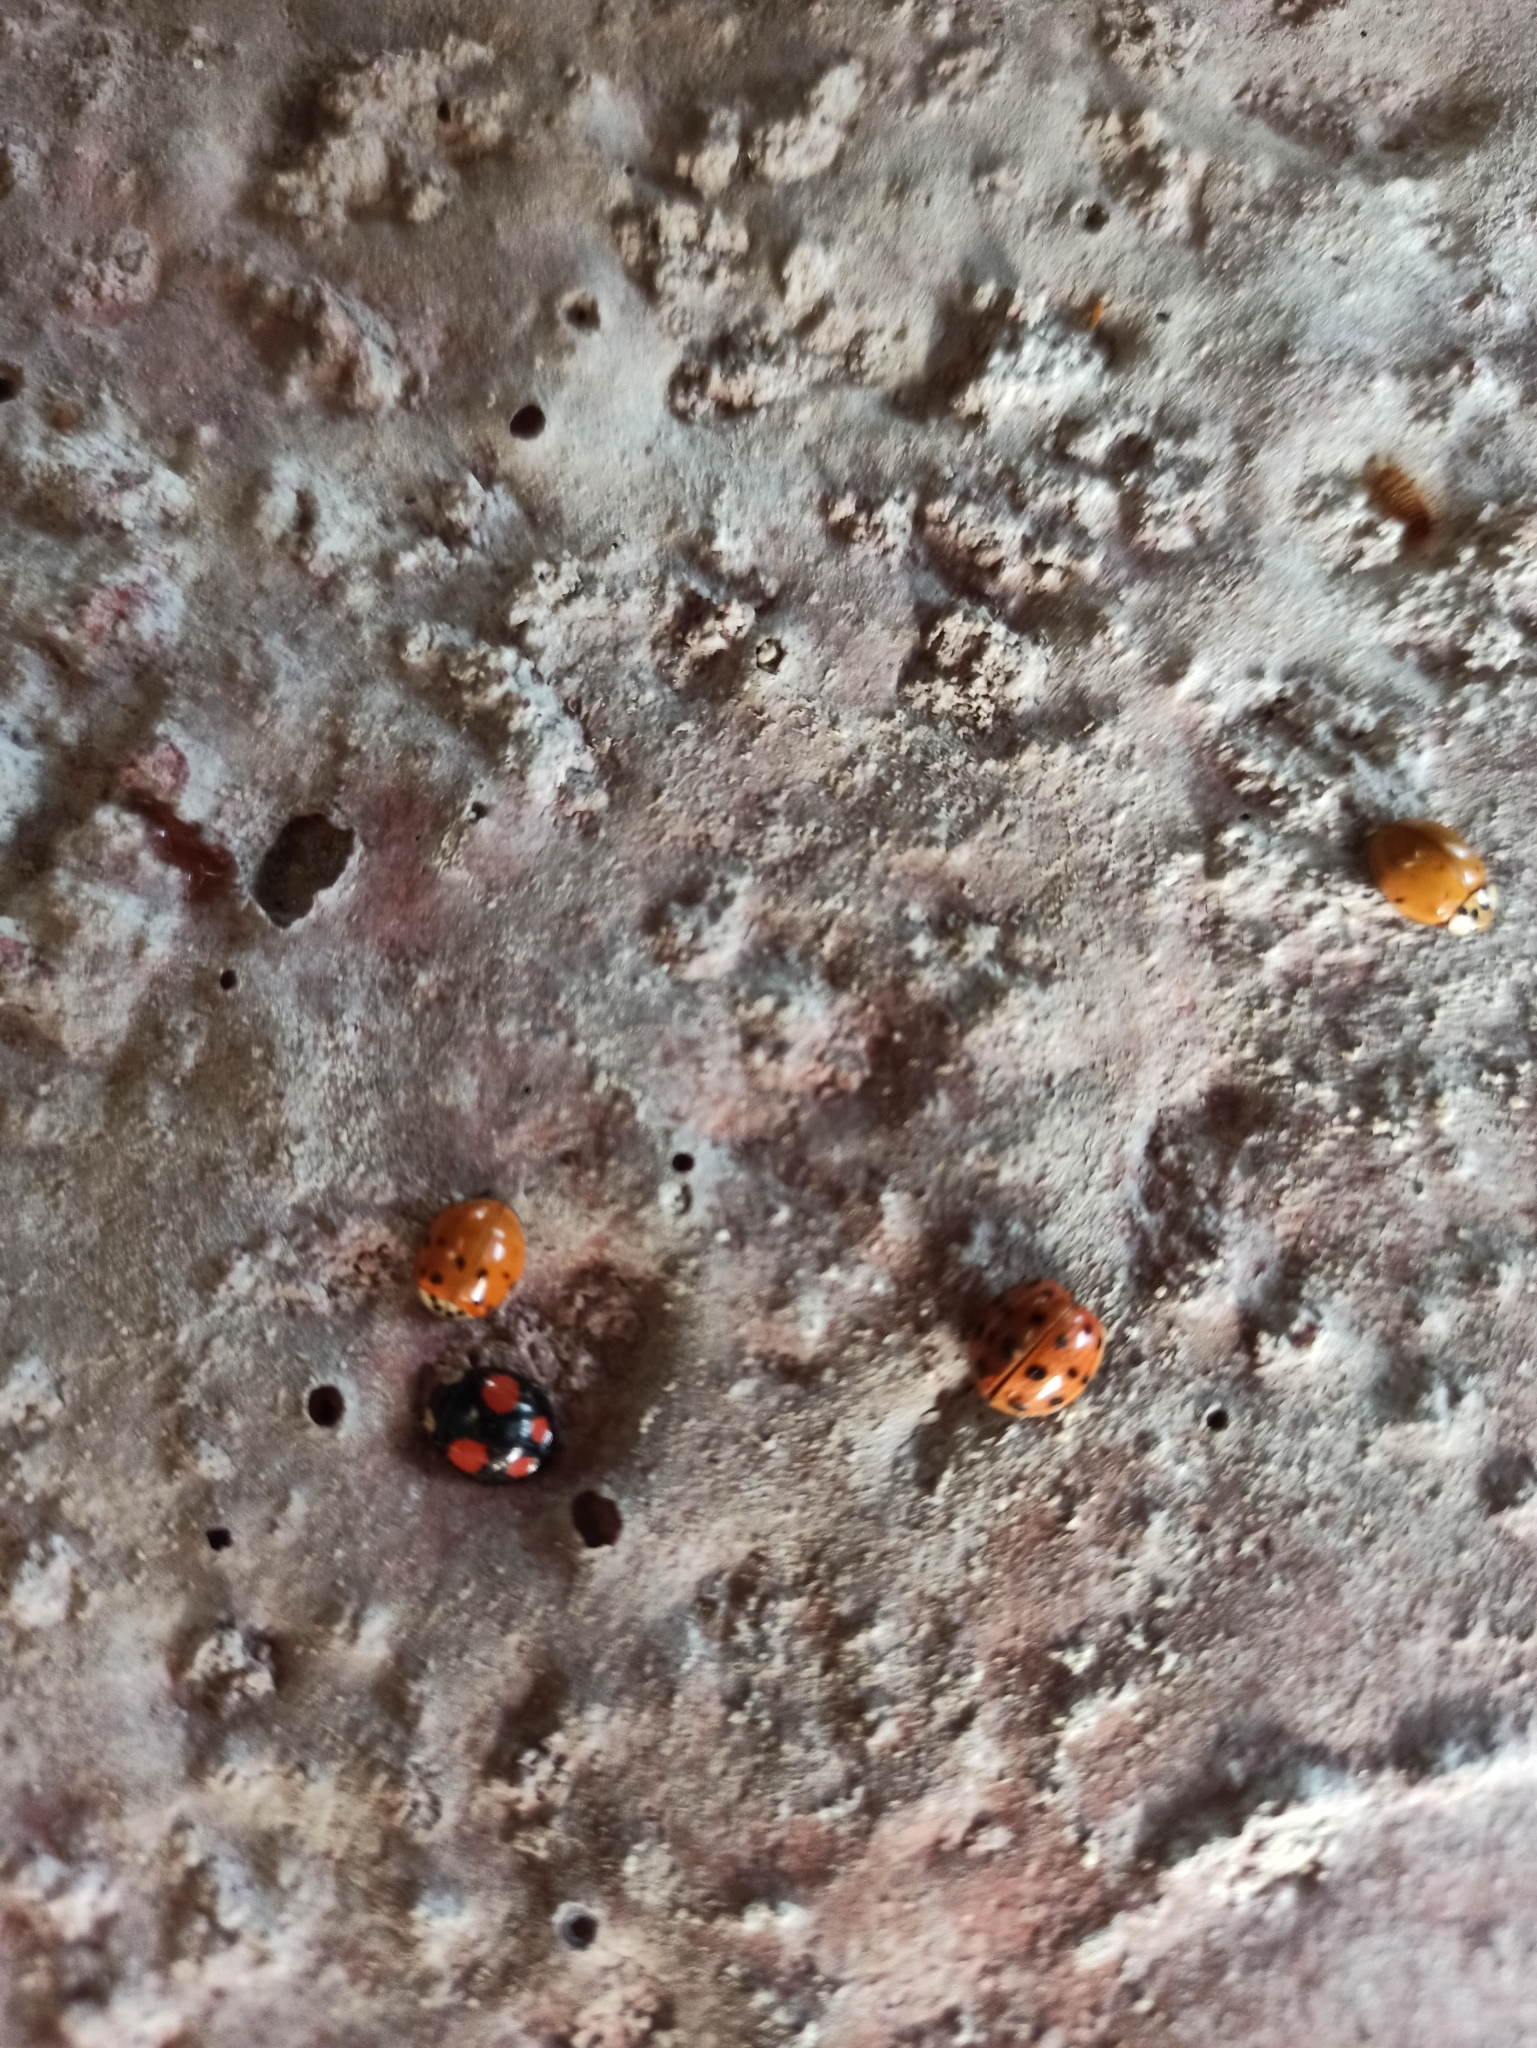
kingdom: Animalia
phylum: Arthropoda
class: Insecta
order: Coleoptera
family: Coccinellidae
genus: Harmonia
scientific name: Harmonia axyridis
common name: Harlequin ladybird
